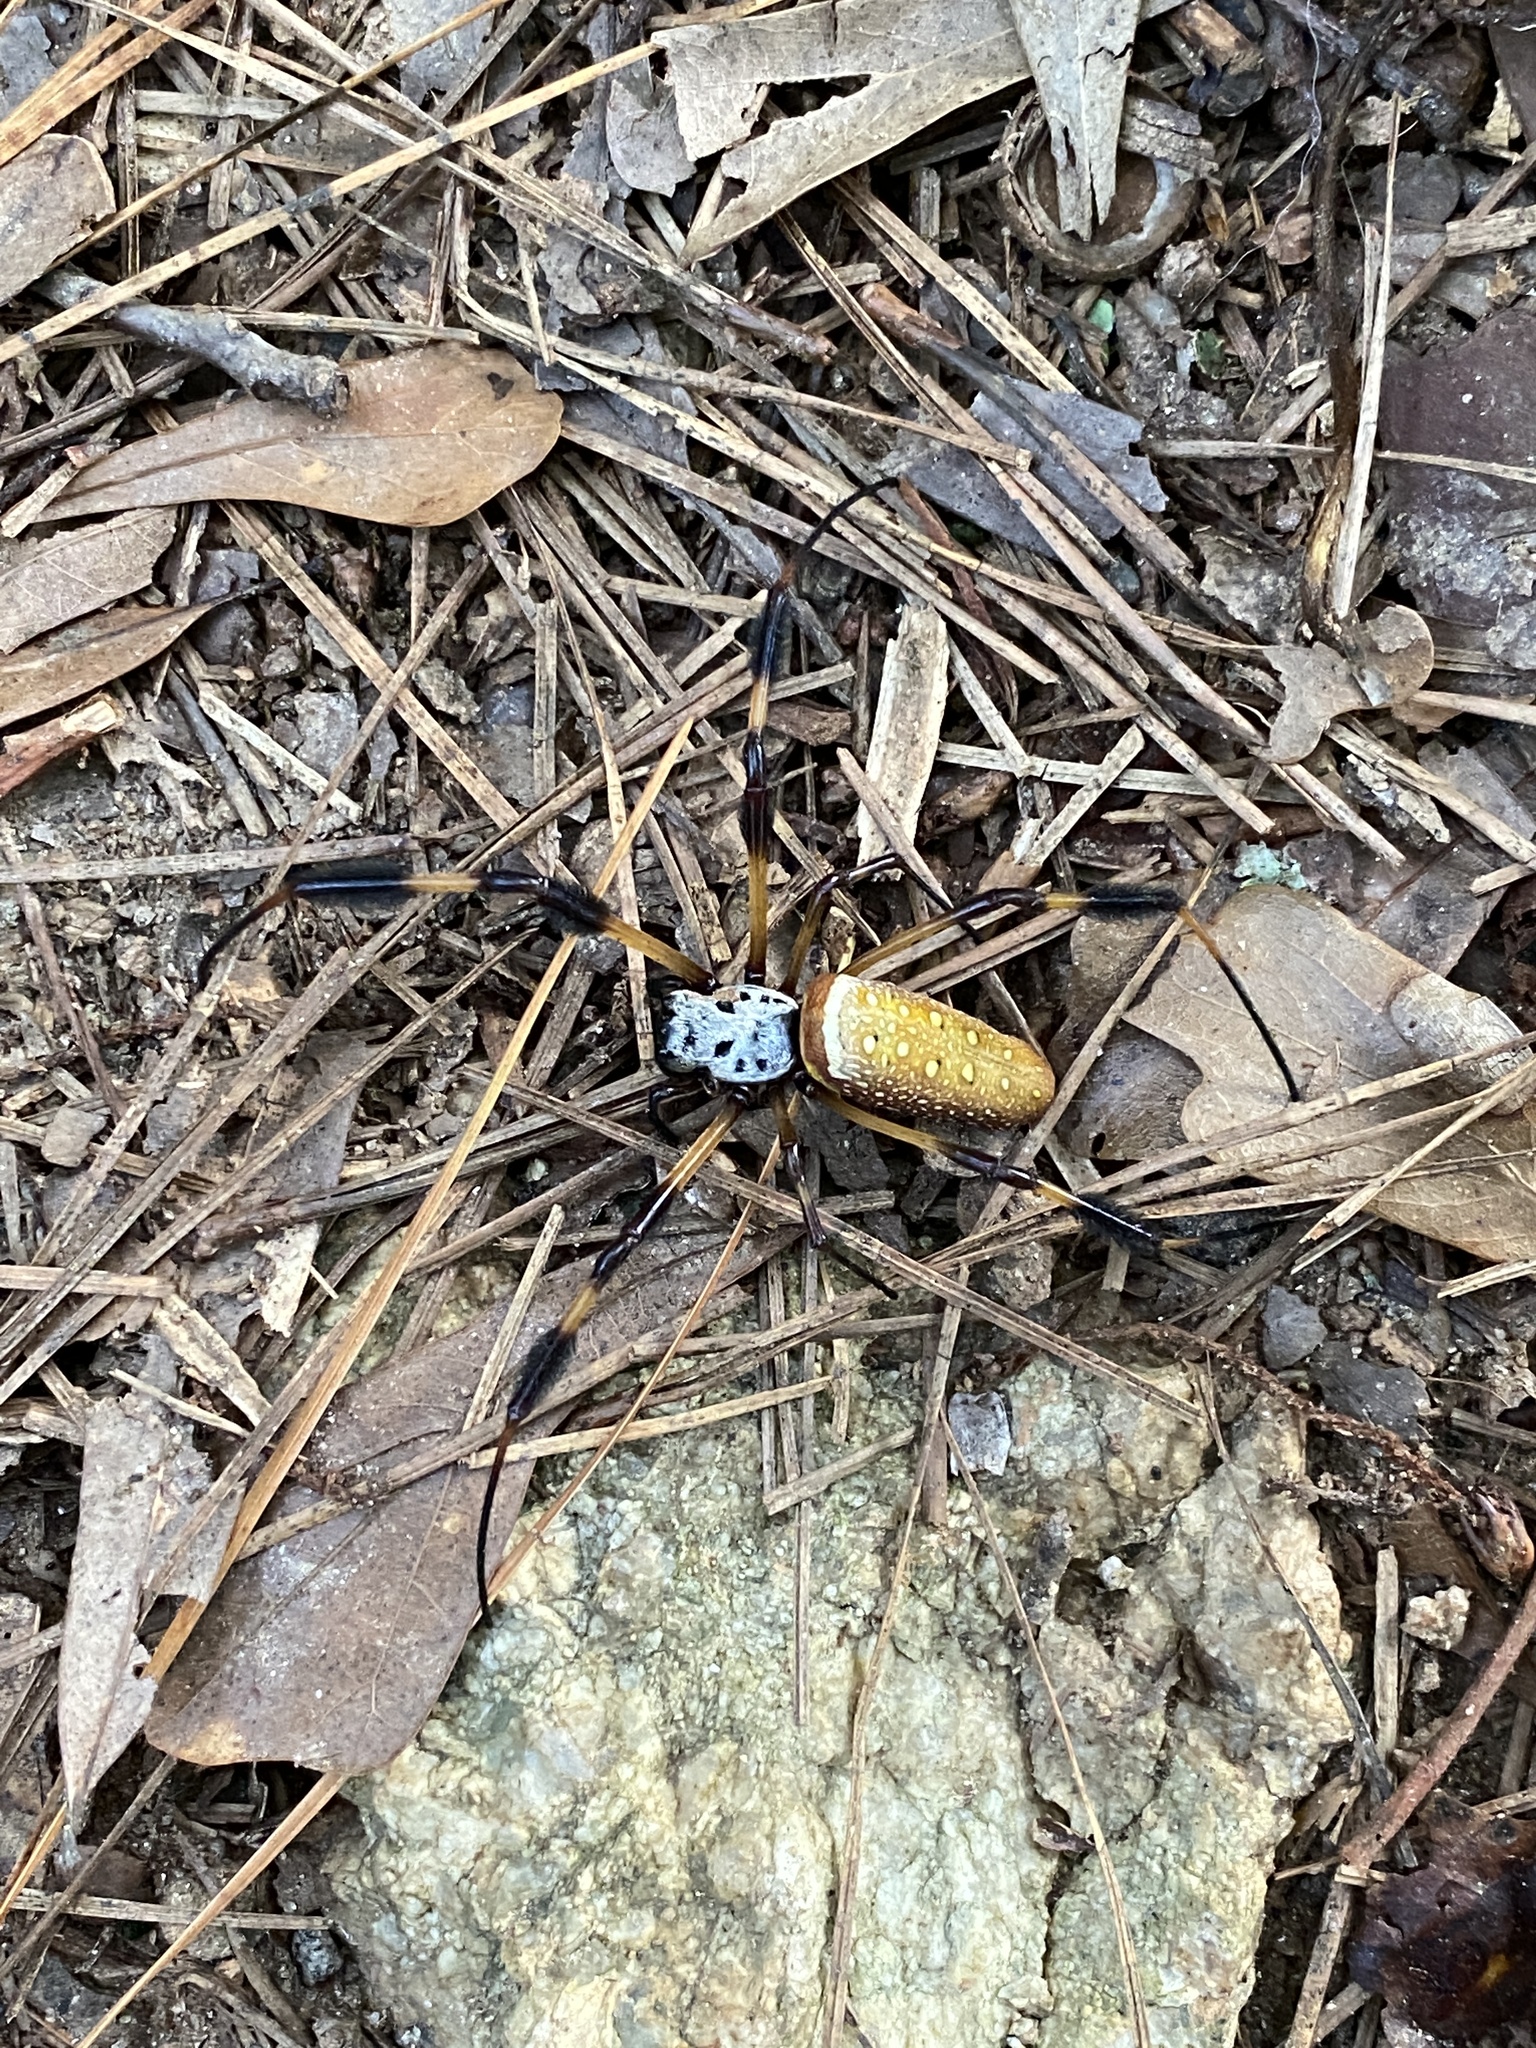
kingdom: Animalia
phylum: Arthropoda
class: Arachnida
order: Araneae
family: Araneidae
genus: Trichonephila
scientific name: Trichonephila clavipes
